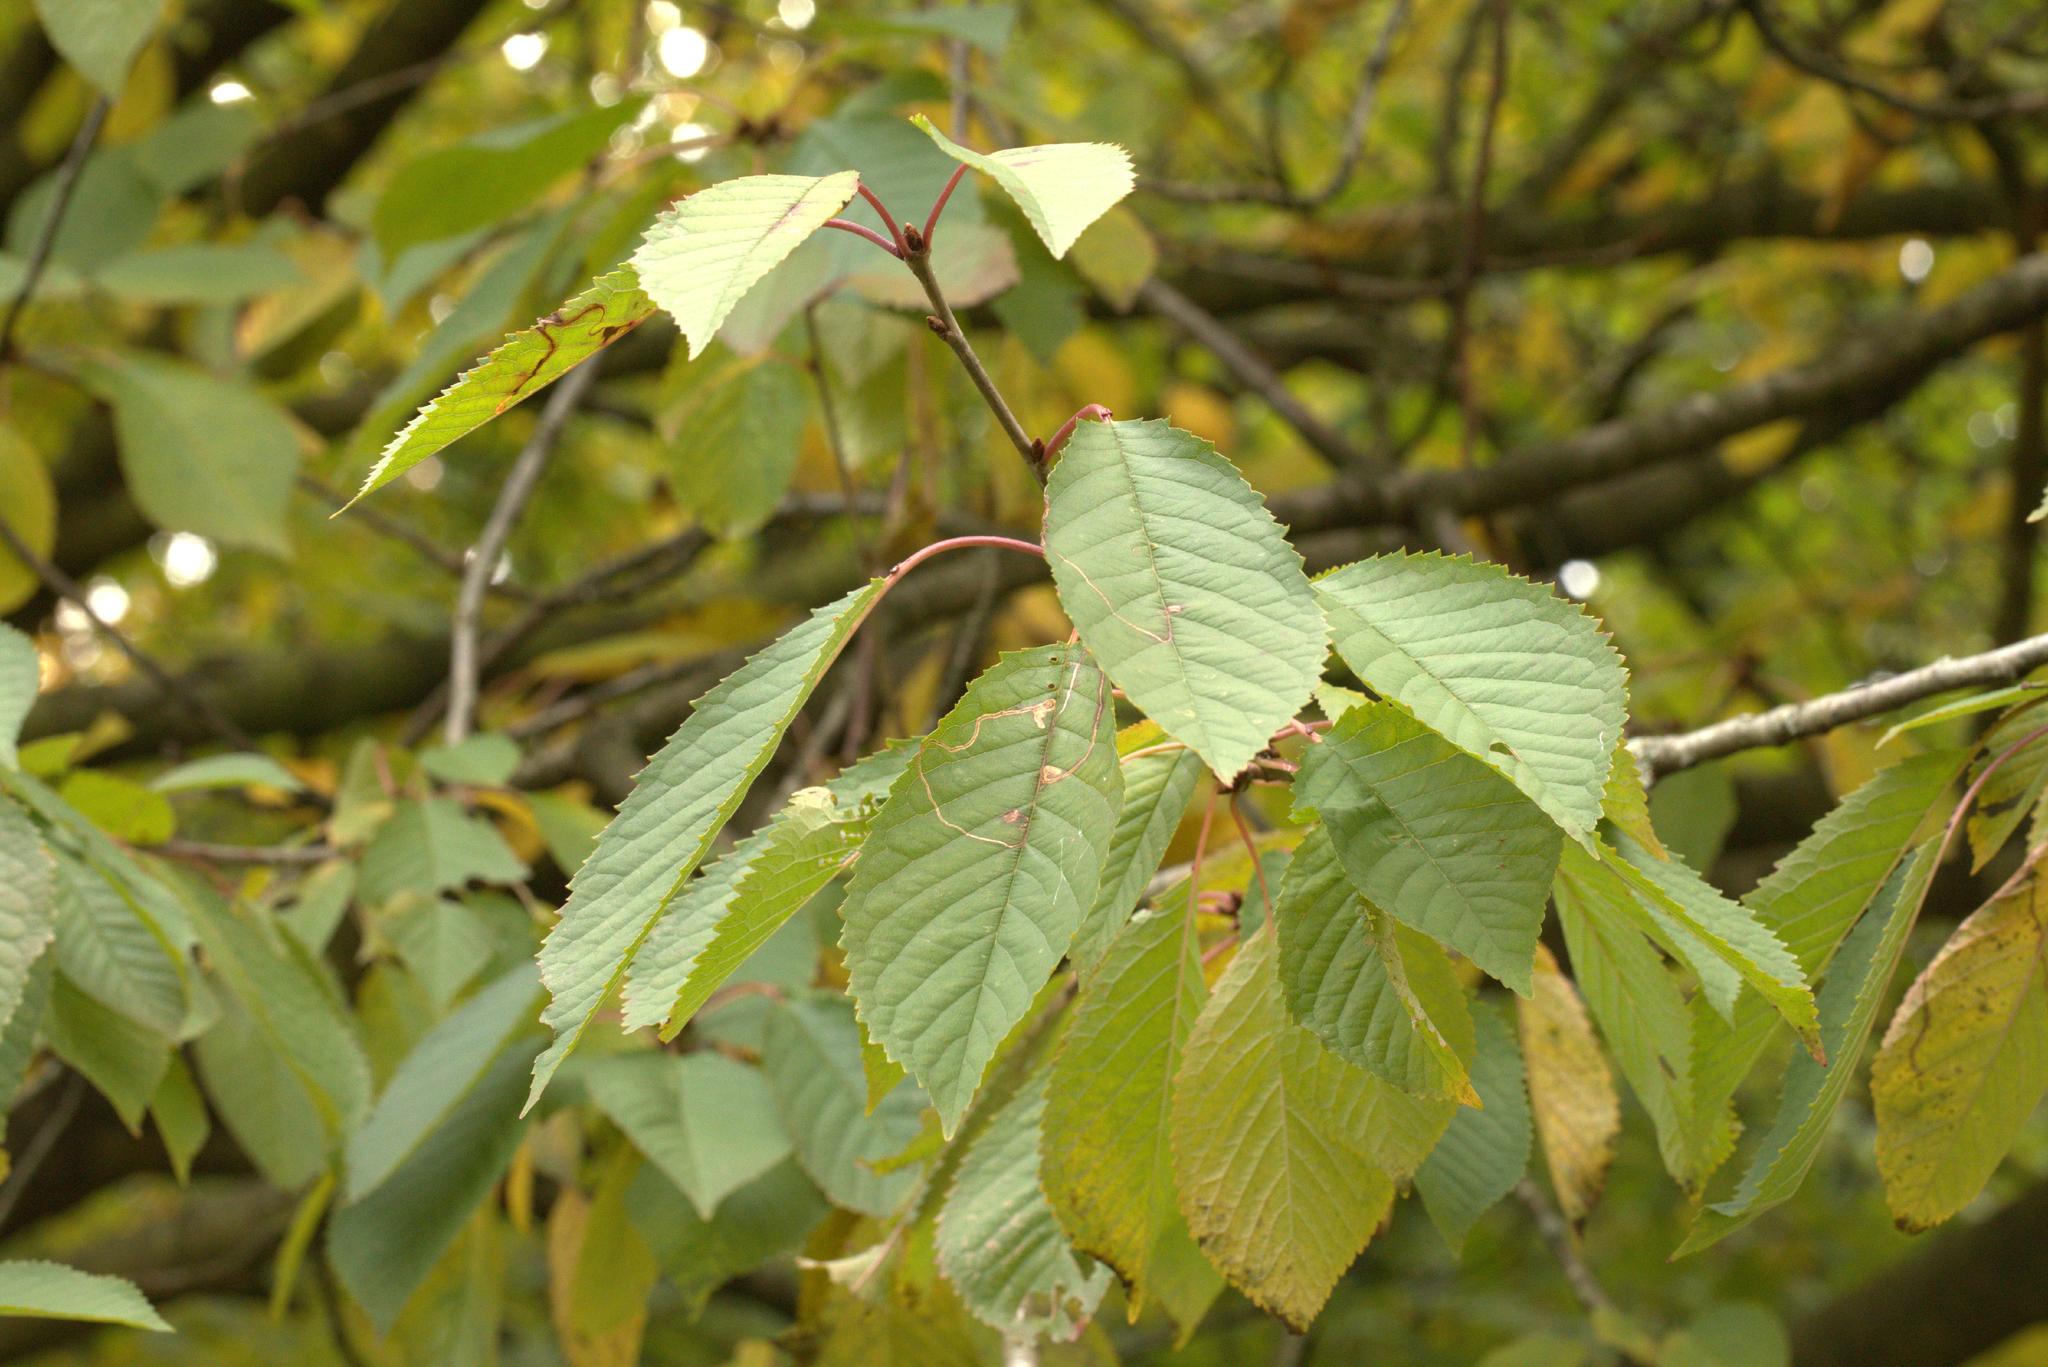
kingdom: Plantae
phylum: Tracheophyta
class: Magnoliopsida
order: Rosales
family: Rosaceae
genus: Prunus
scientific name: Prunus avium
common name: Sweet cherry
